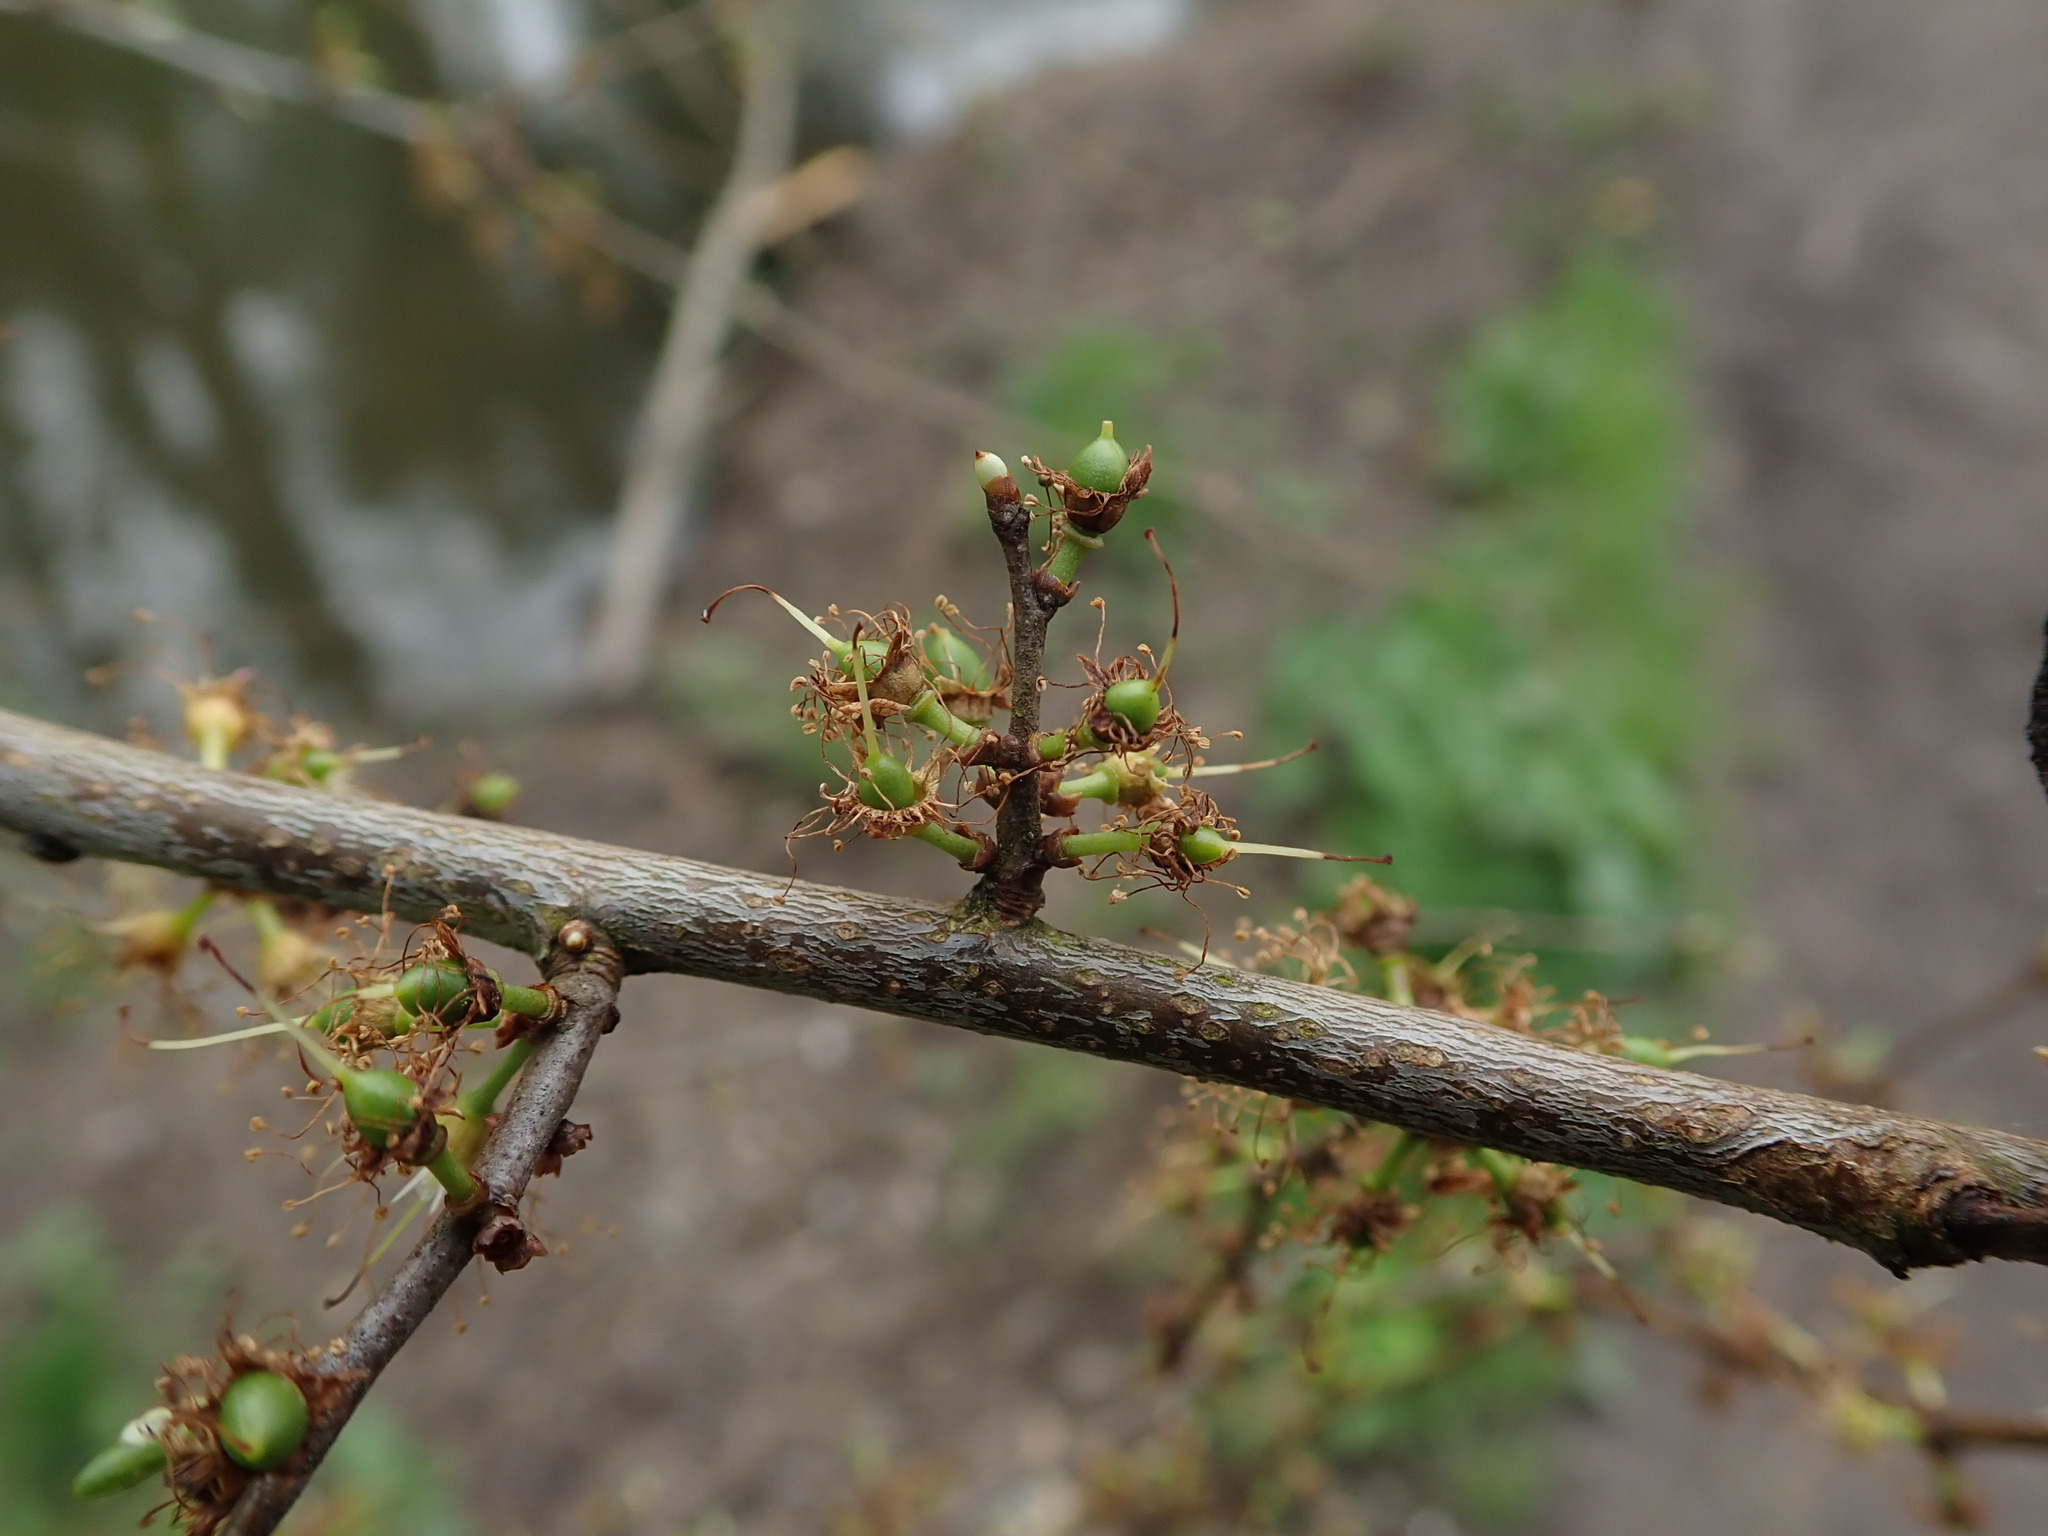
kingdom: Plantae
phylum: Tracheophyta
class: Magnoliopsida
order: Rosales
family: Rosaceae
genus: Prunus
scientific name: Prunus spinosa
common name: Blackthorn
